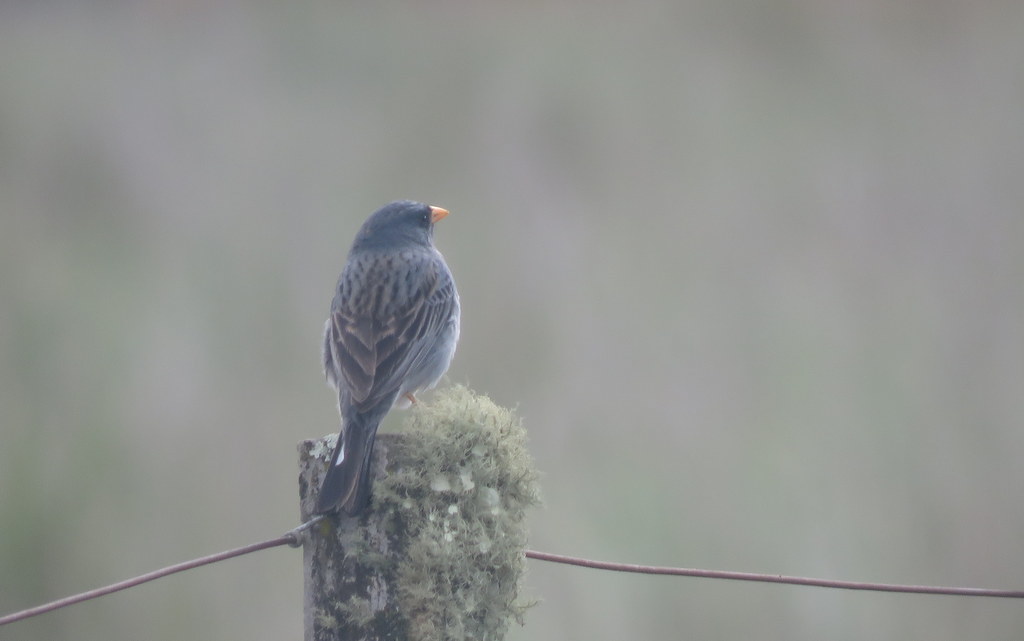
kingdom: Animalia
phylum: Chordata
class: Aves
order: Passeriformes
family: Thraupidae
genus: Porphyrospiza
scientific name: Porphyrospiza alaudina
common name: Band-tailed sierra finch
